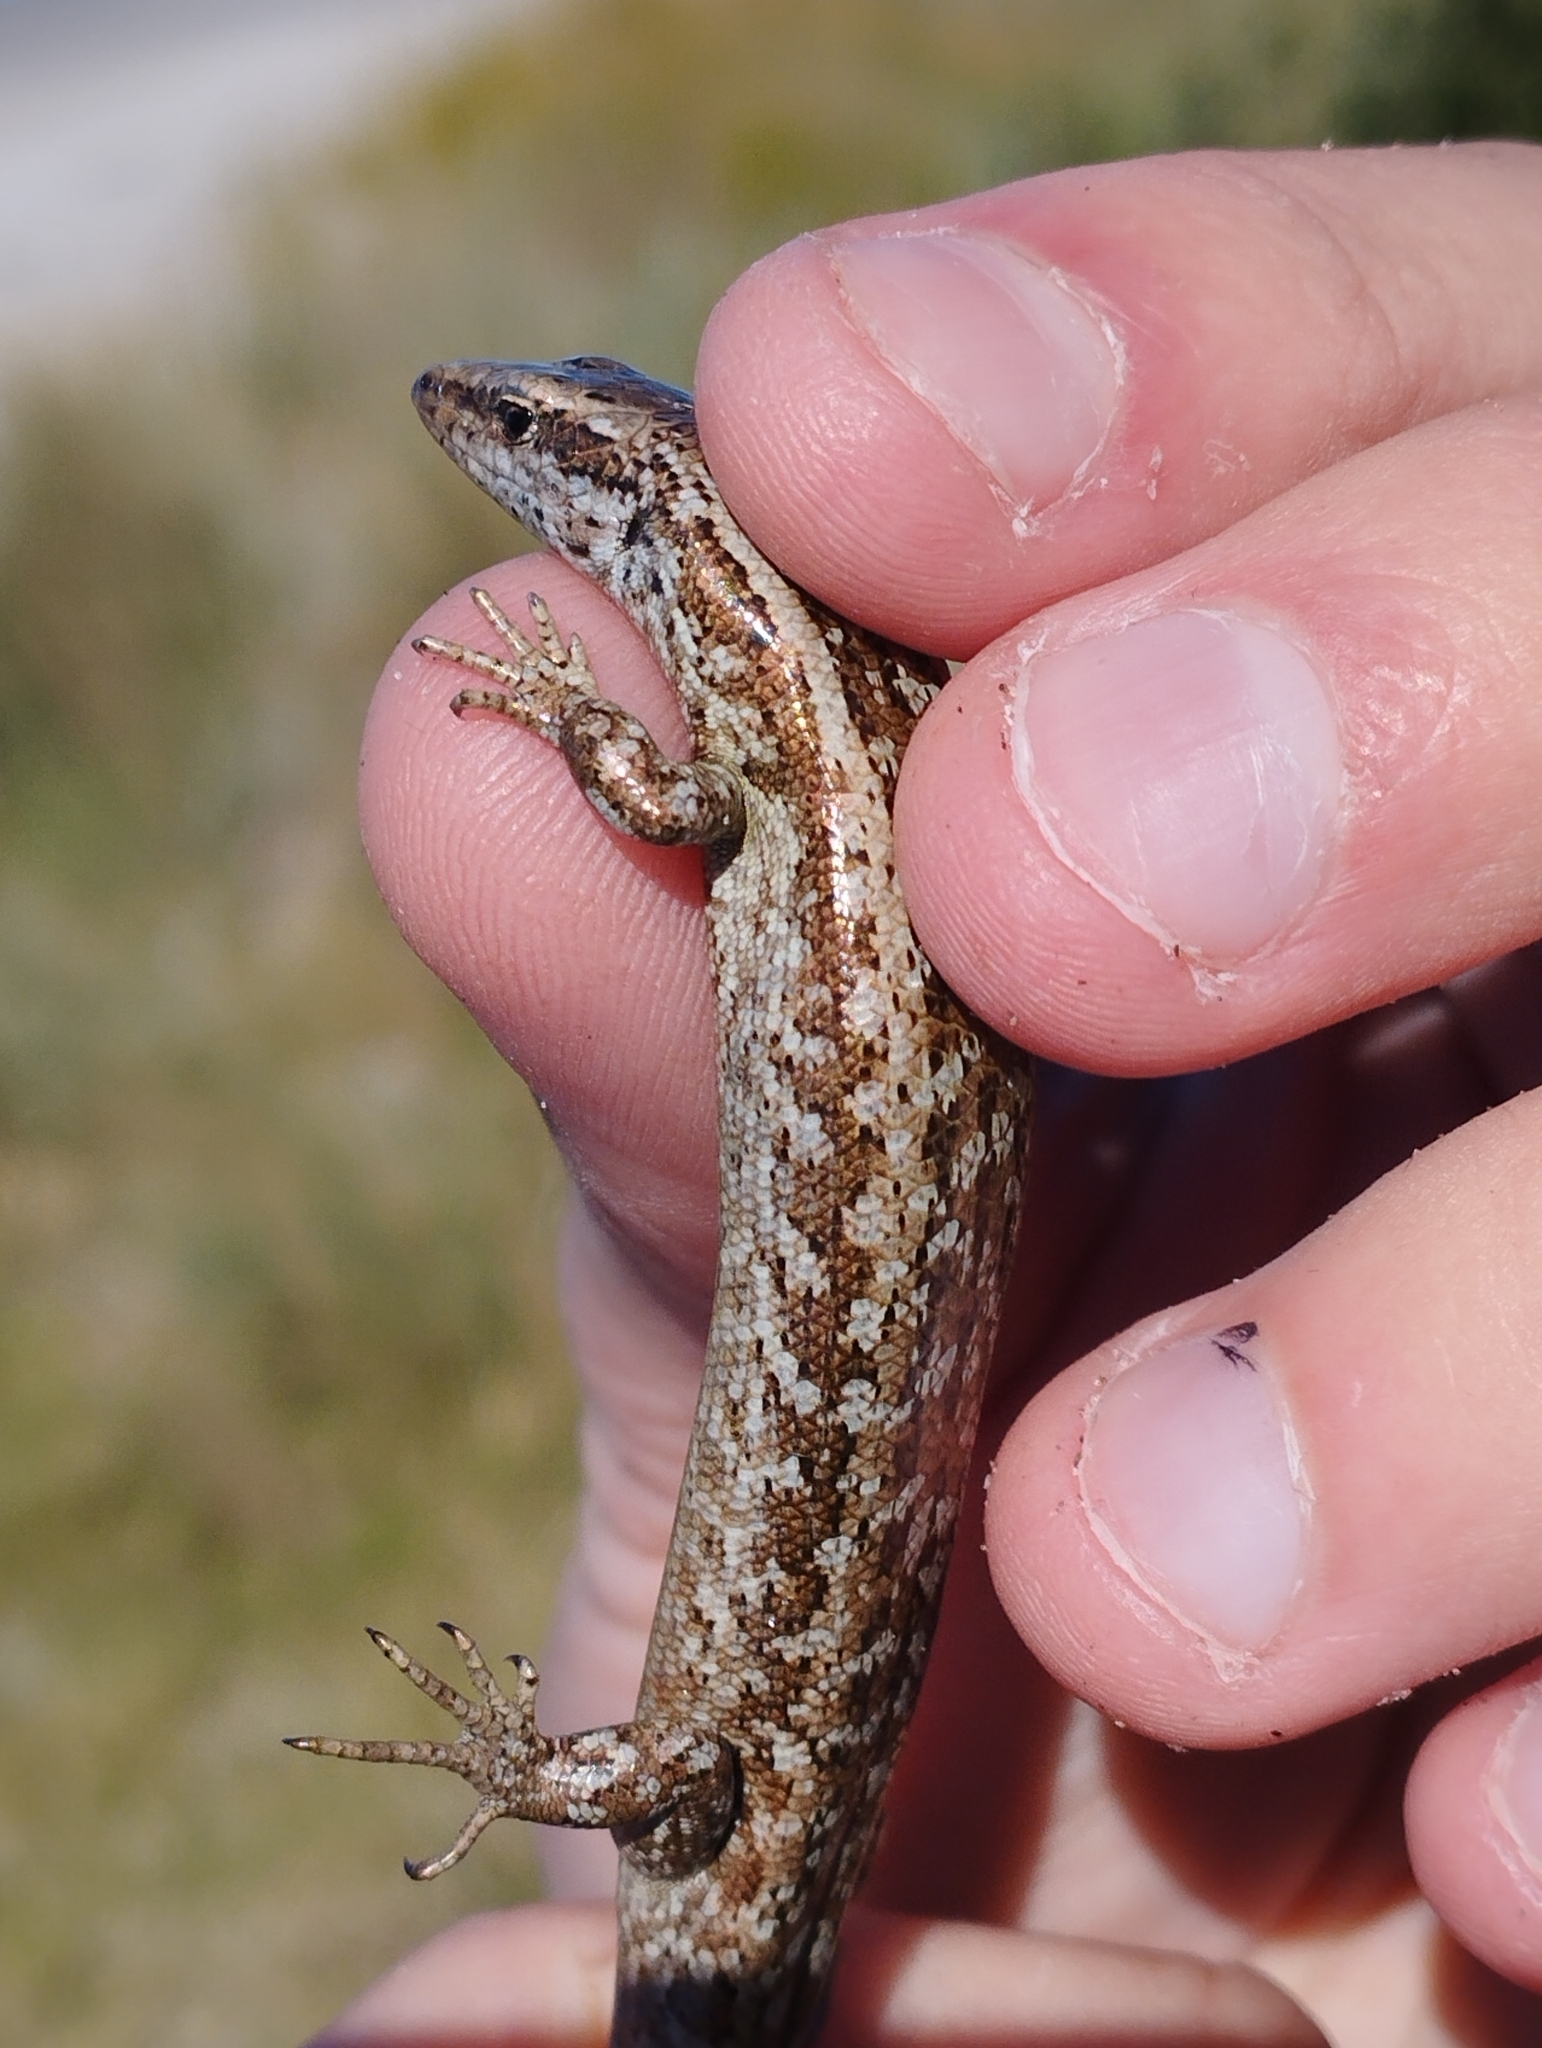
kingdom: Animalia
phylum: Chordata
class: Squamata
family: Scincidae
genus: Oligosoma
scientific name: Oligosoma smithi
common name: Shore skink
